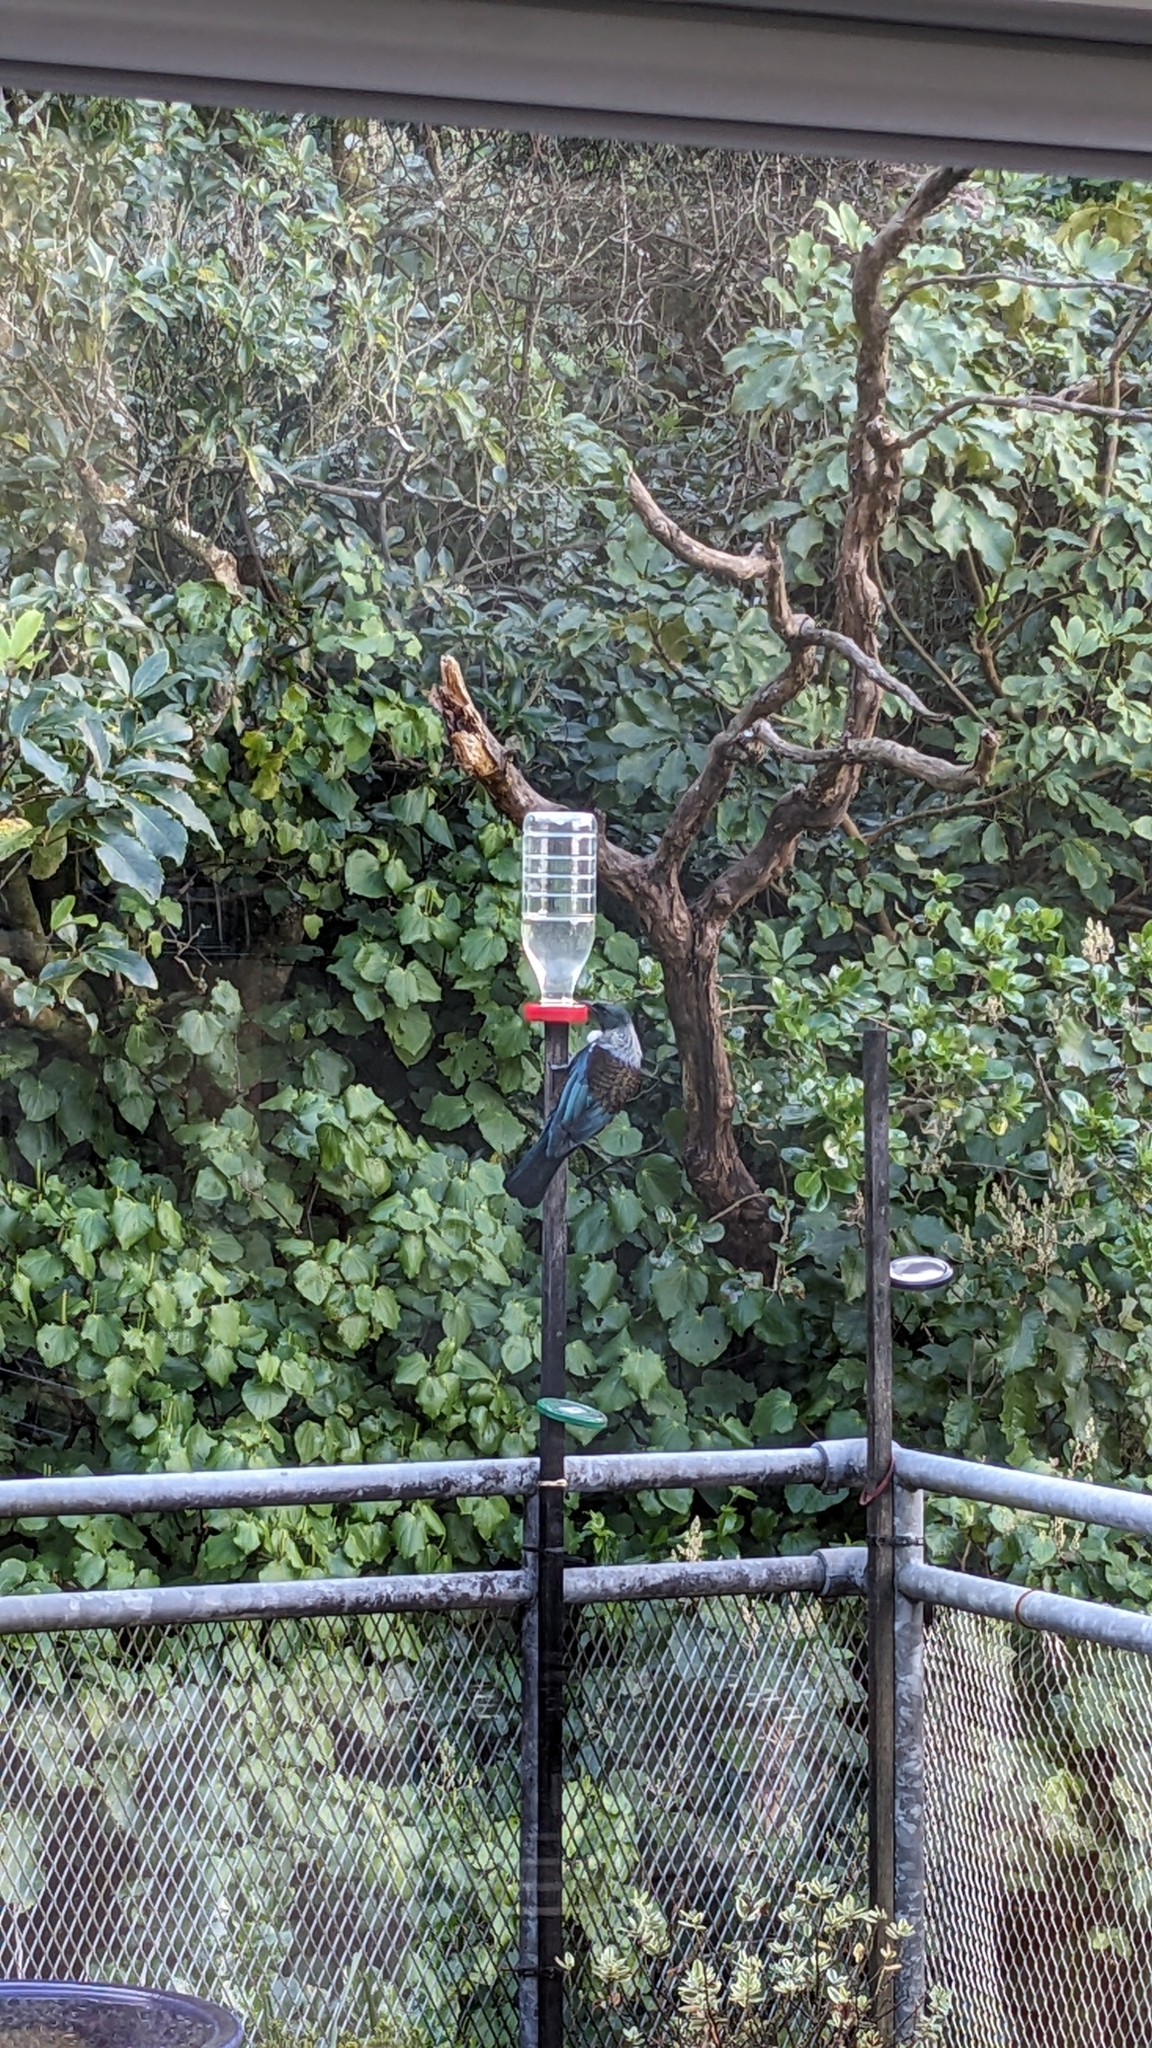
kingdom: Animalia
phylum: Chordata
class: Aves
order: Passeriformes
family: Meliphagidae
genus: Prosthemadera
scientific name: Prosthemadera novaeseelandiae
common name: Tui
